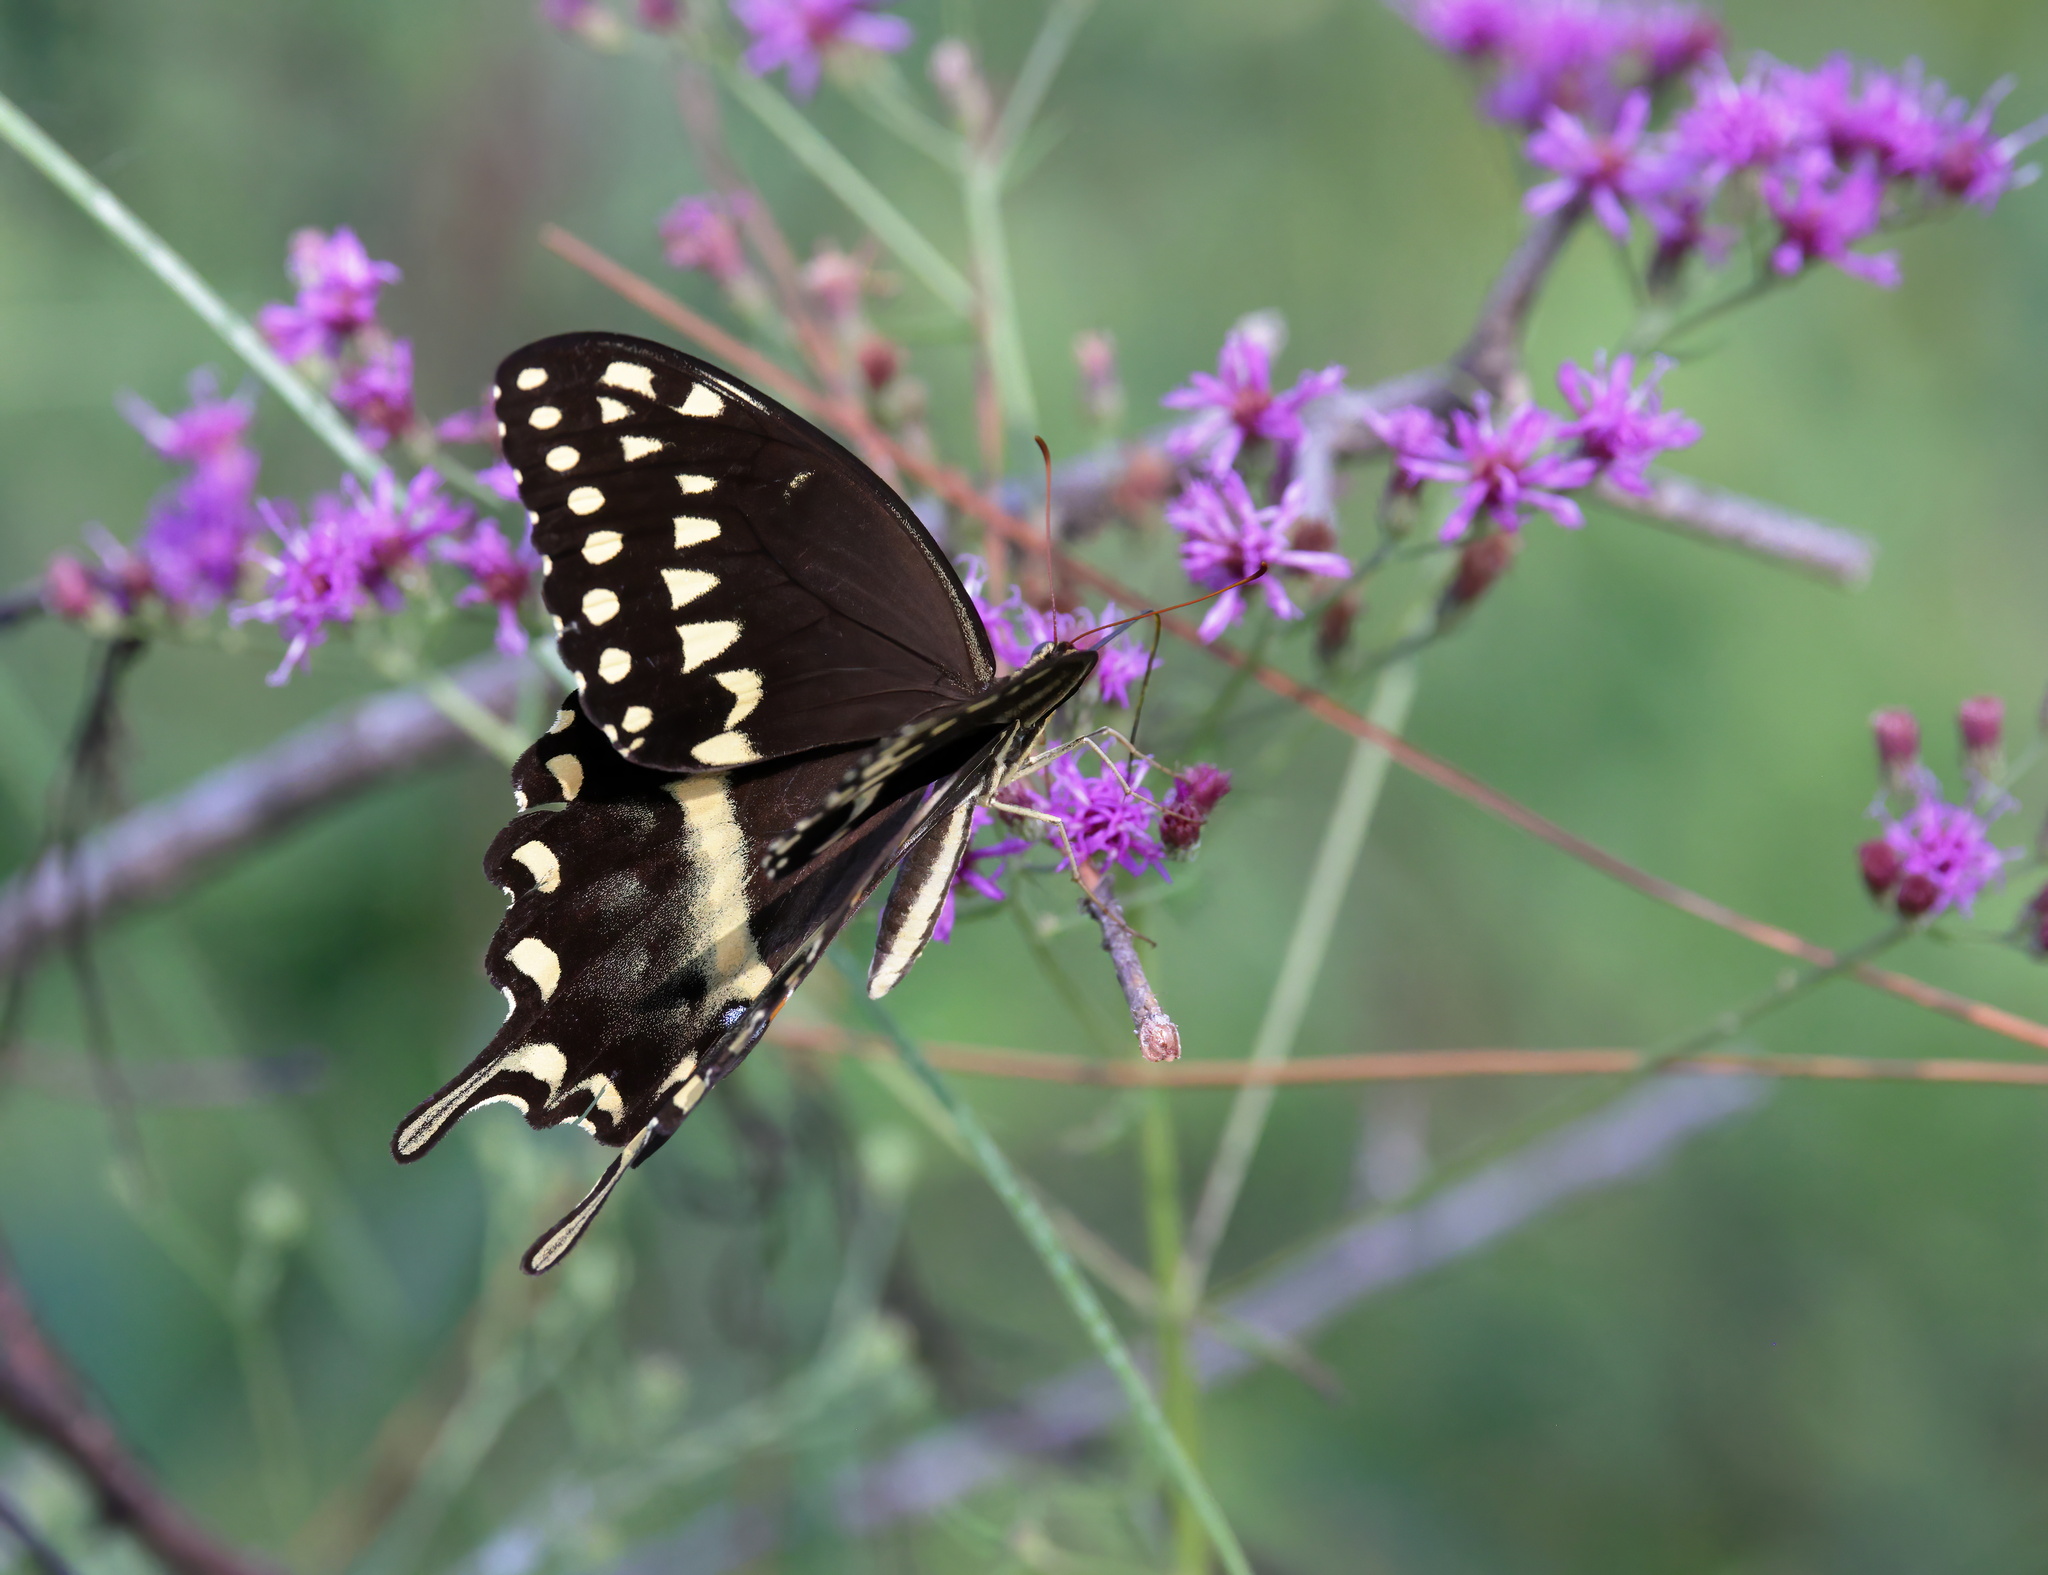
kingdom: Animalia
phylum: Arthropoda
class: Insecta
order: Lepidoptera
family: Papilionidae
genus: Papilio
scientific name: Papilio palamedes
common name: Palamedes swallowtail
